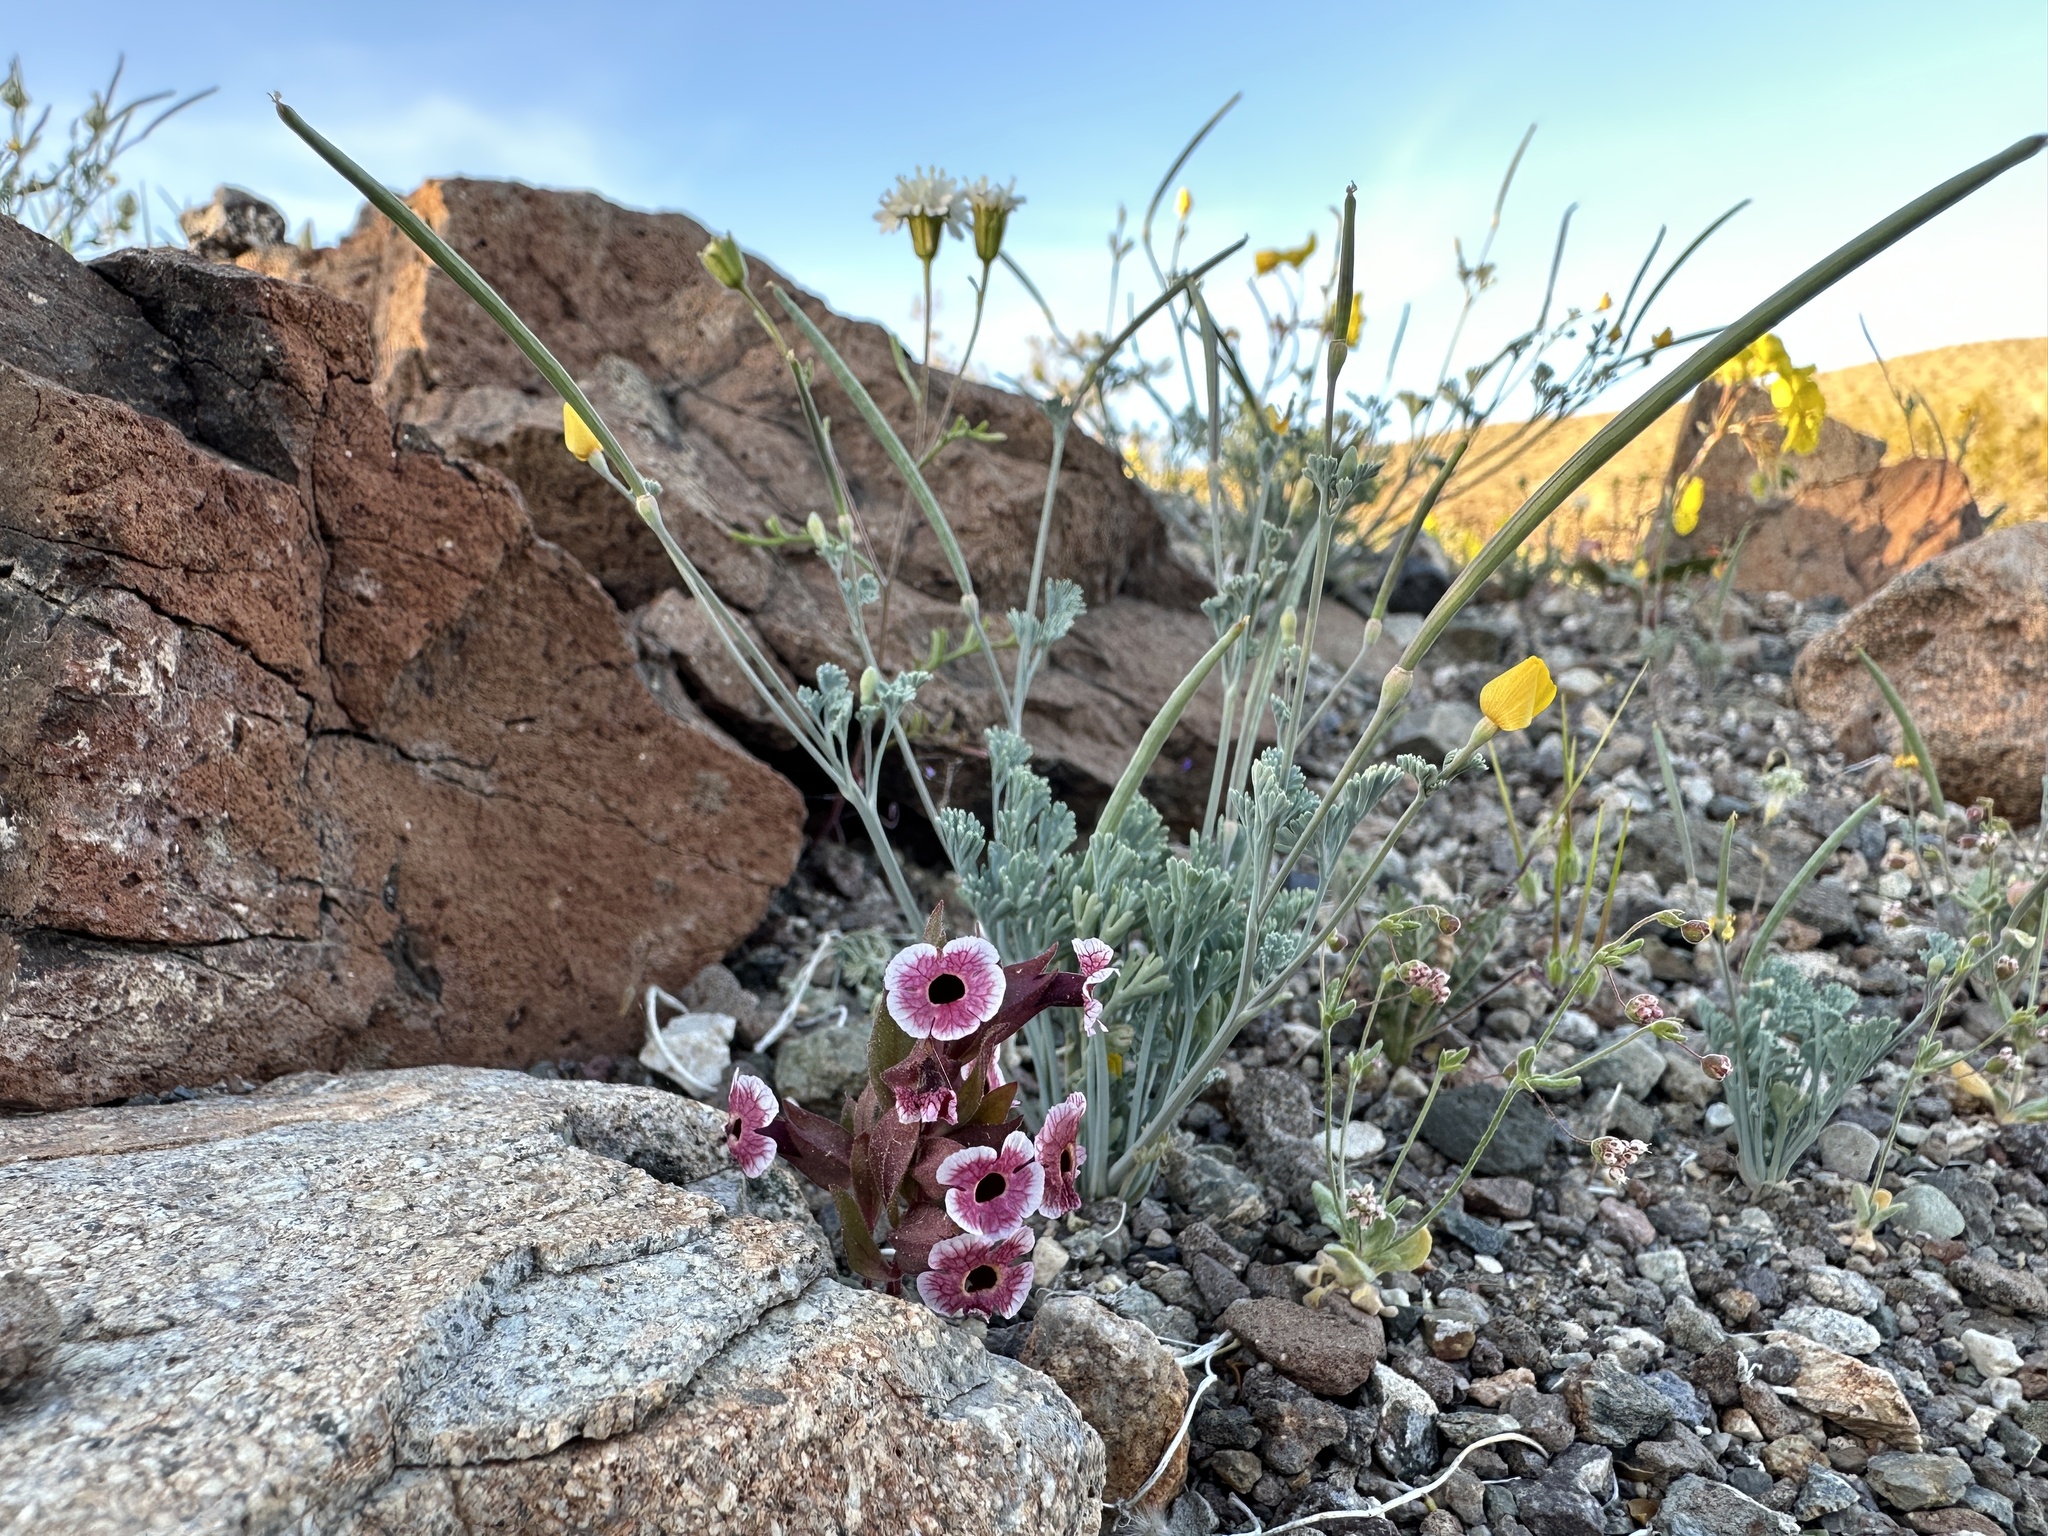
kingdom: Plantae
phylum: Tracheophyta
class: Magnoliopsida
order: Lamiales
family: Phrymaceae
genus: Diplacus
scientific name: Diplacus mohavensis
